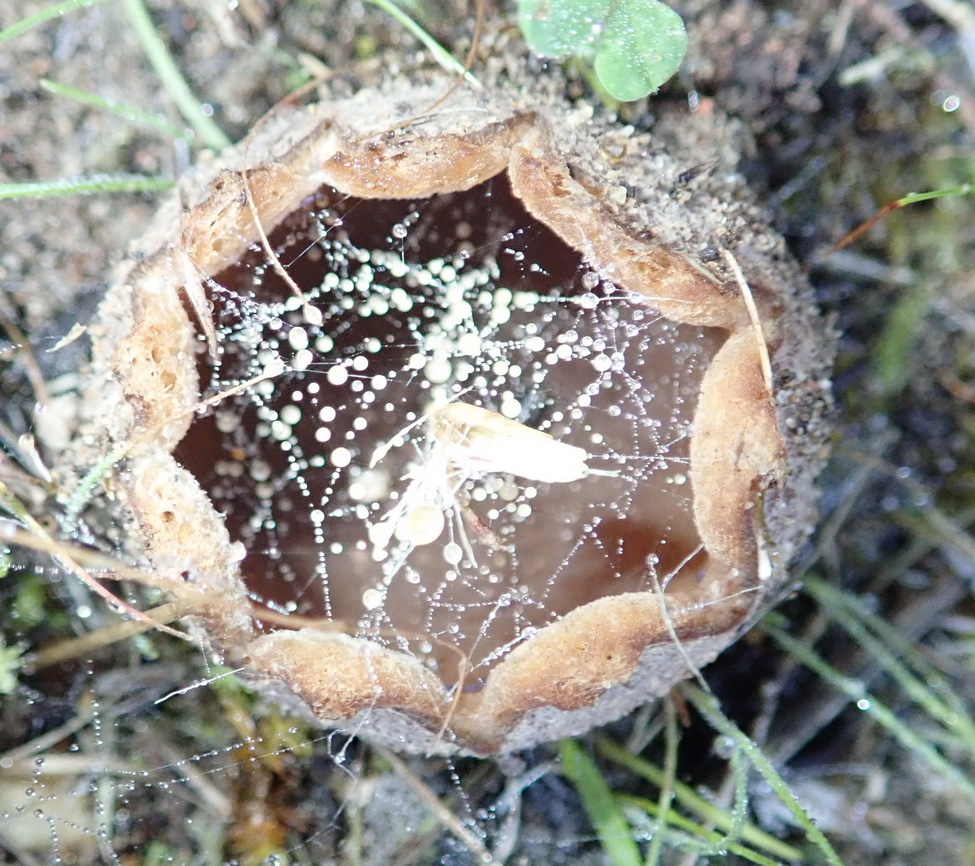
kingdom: Fungi
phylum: Ascomycota
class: Pezizomycetes
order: Pezizales
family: Pezizaceae
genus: Peziza
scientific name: Peziza ammophila
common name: Dune cup
